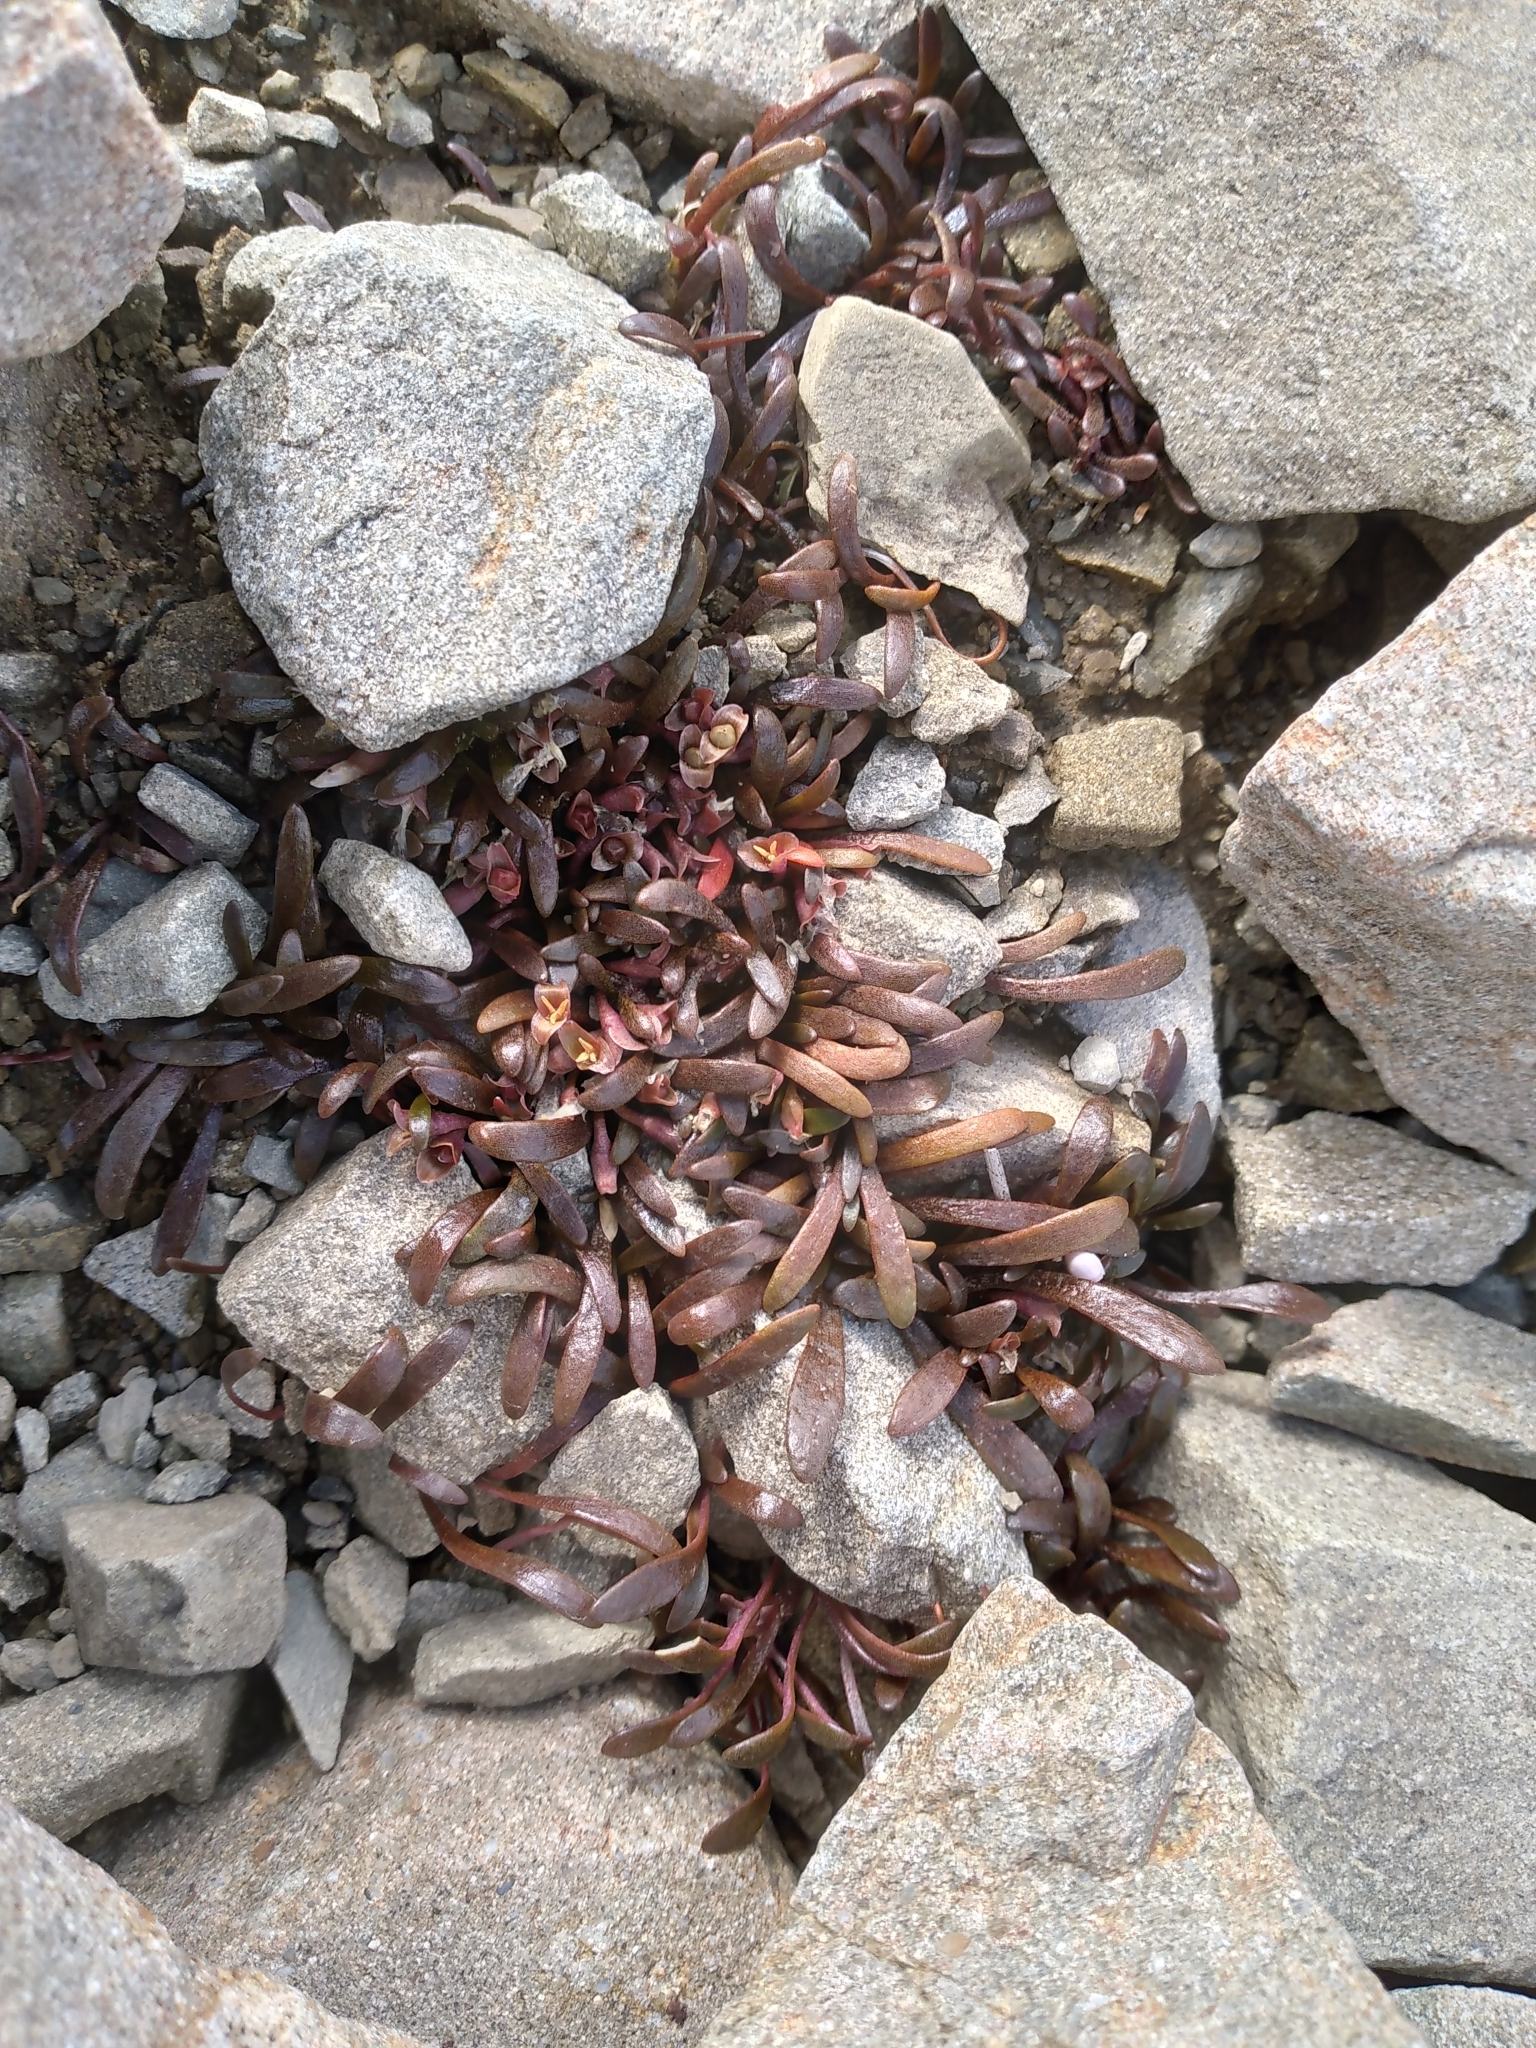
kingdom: Plantae
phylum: Tracheophyta
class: Magnoliopsida
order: Caryophyllales
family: Montiaceae
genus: Montia
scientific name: Montia erythrophylla
